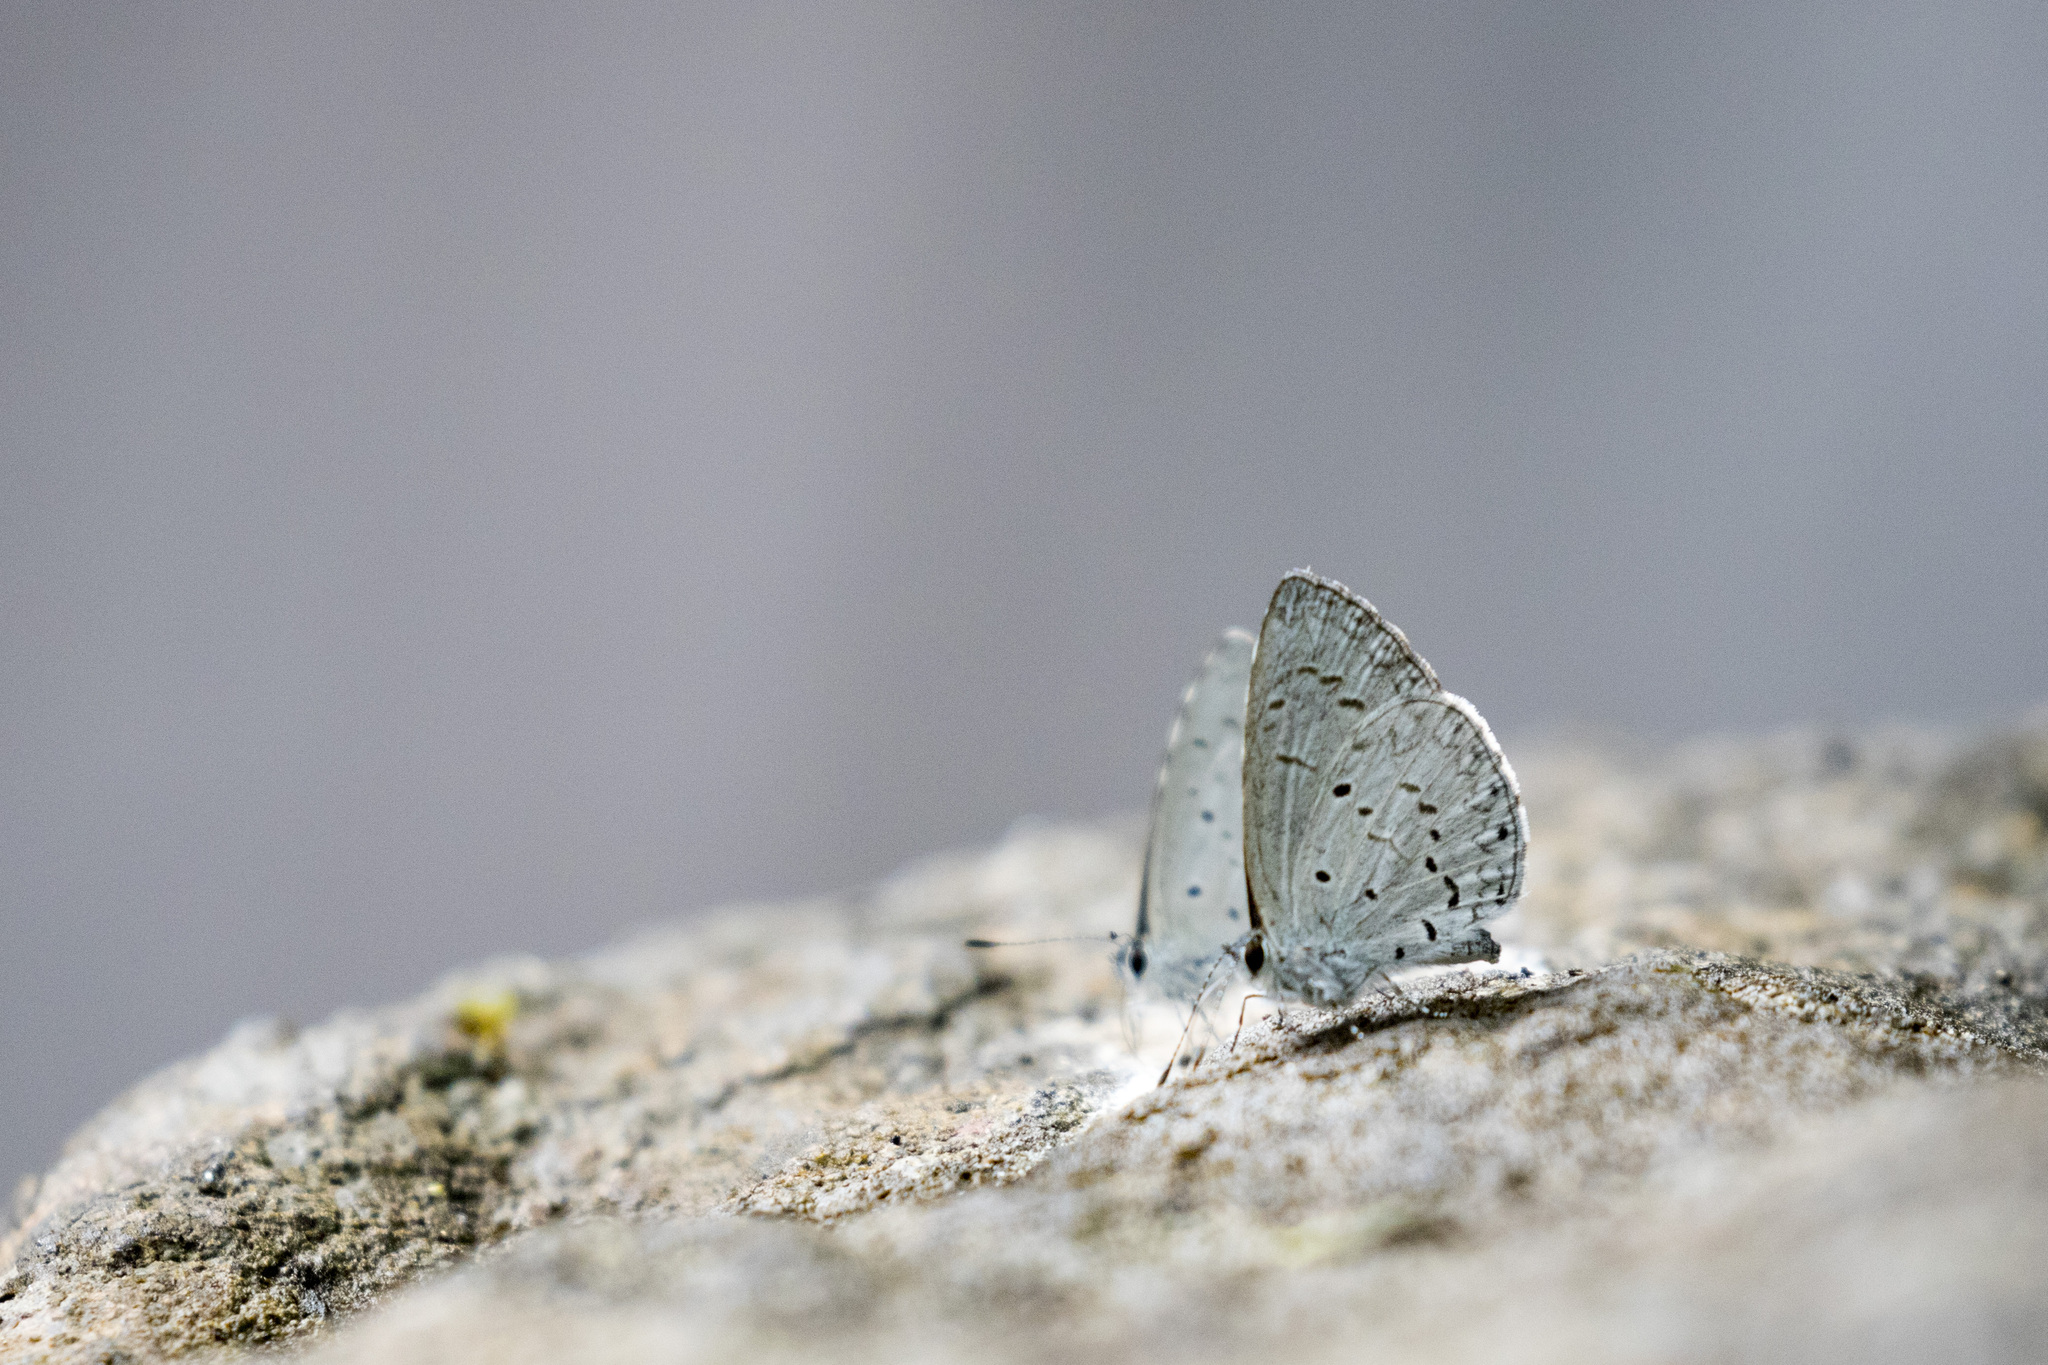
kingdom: Animalia
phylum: Arthropoda
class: Insecta
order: Lepidoptera
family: Lycaenidae
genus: Celastrina
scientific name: Celastrina lavendularis
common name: Plain hedge blue
